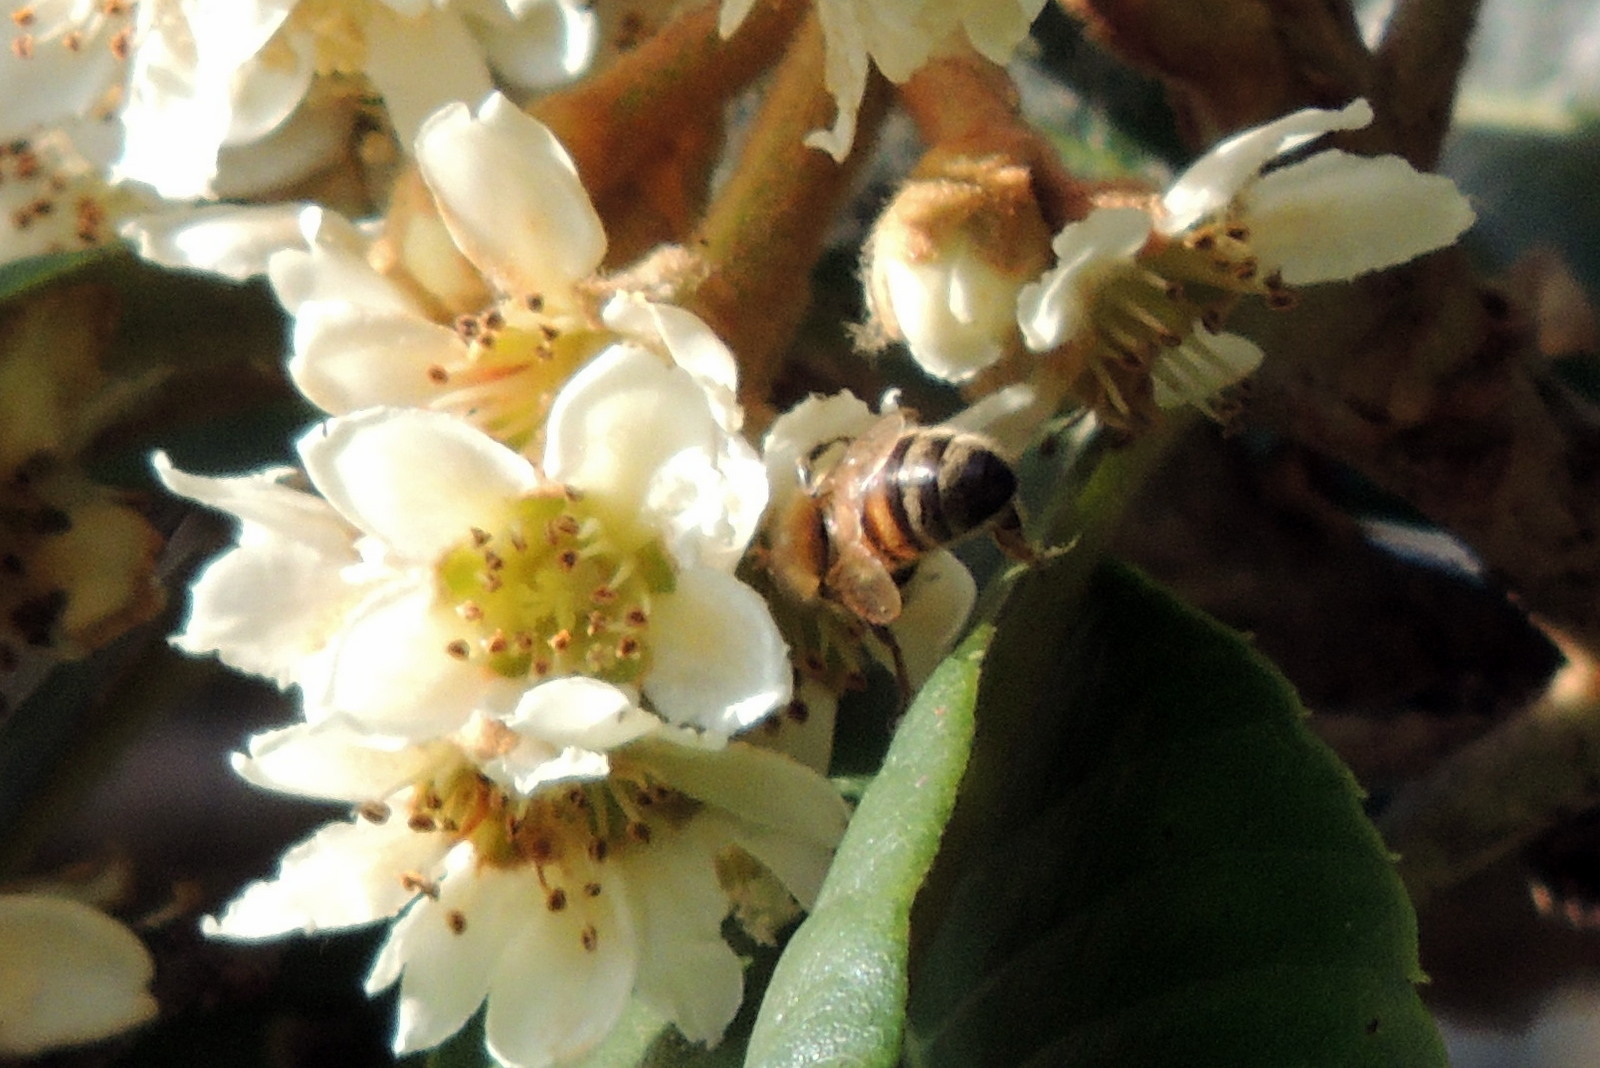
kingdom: Animalia
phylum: Arthropoda
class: Insecta
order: Hymenoptera
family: Apidae
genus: Apis
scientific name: Apis mellifera
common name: Honey bee
